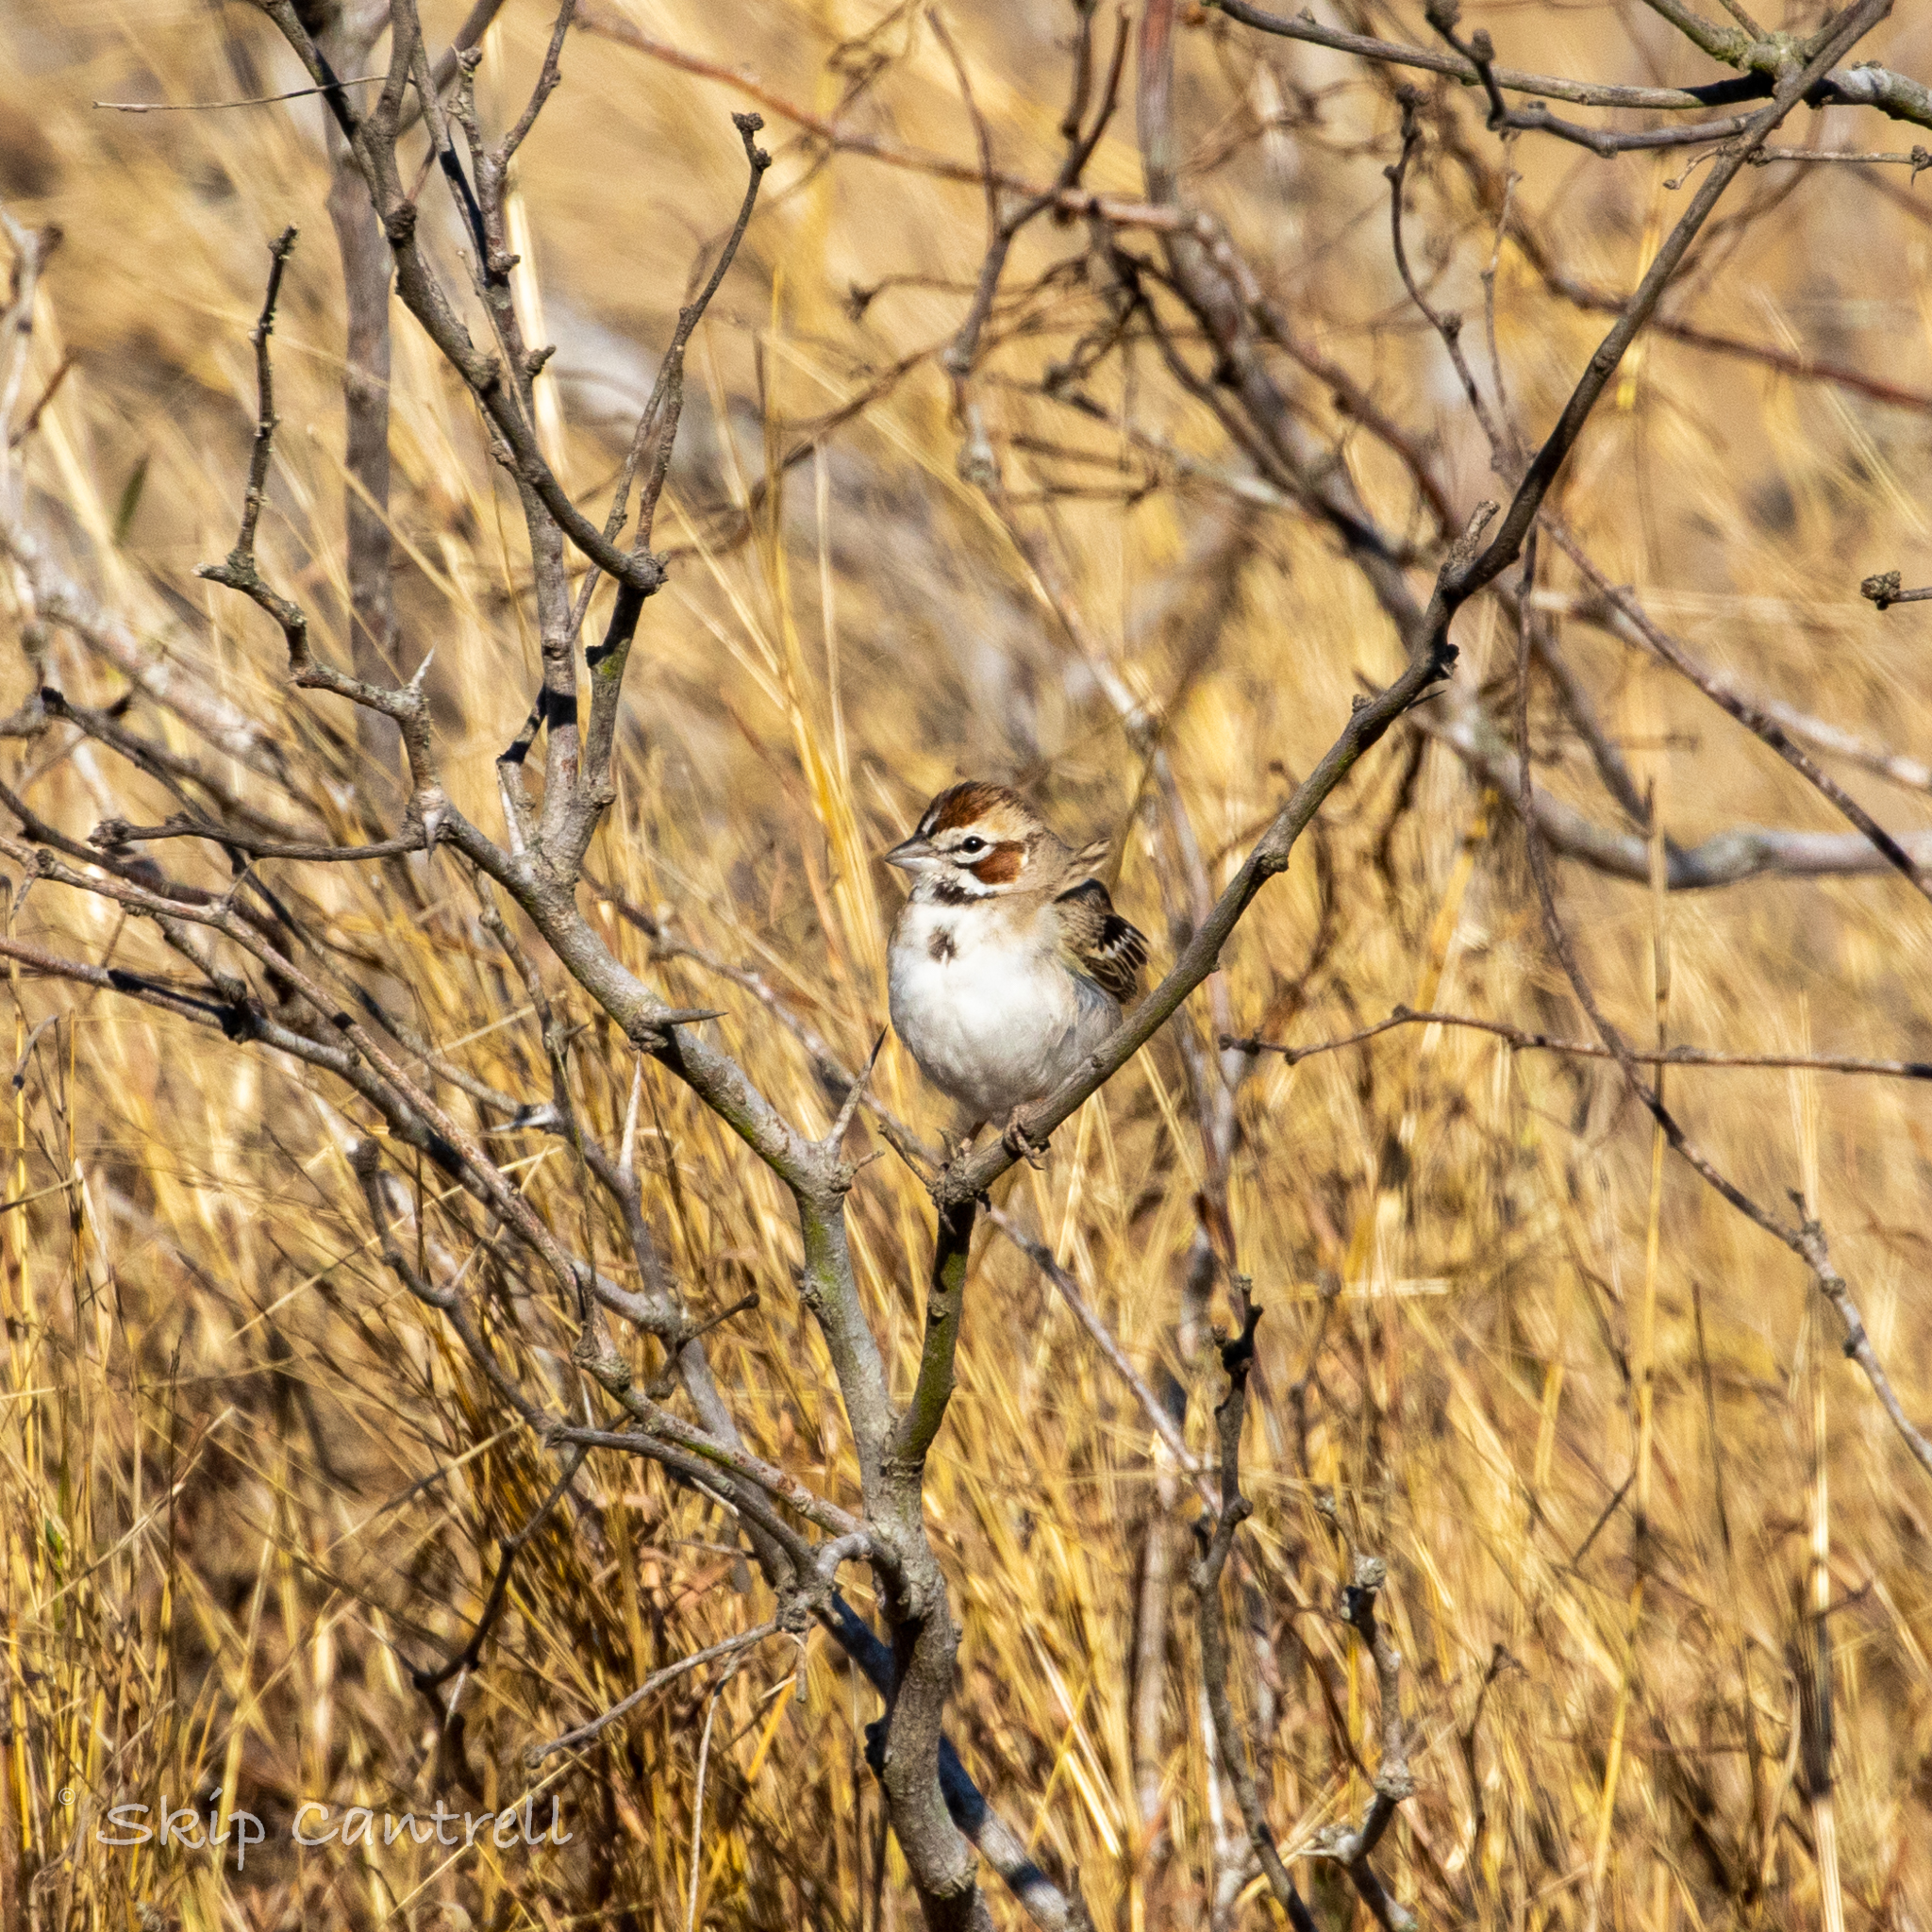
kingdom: Animalia
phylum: Chordata
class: Aves
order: Passeriformes
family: Passerellidae
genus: Chondestes
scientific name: Chondestes grammacus
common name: Lark sparrow
